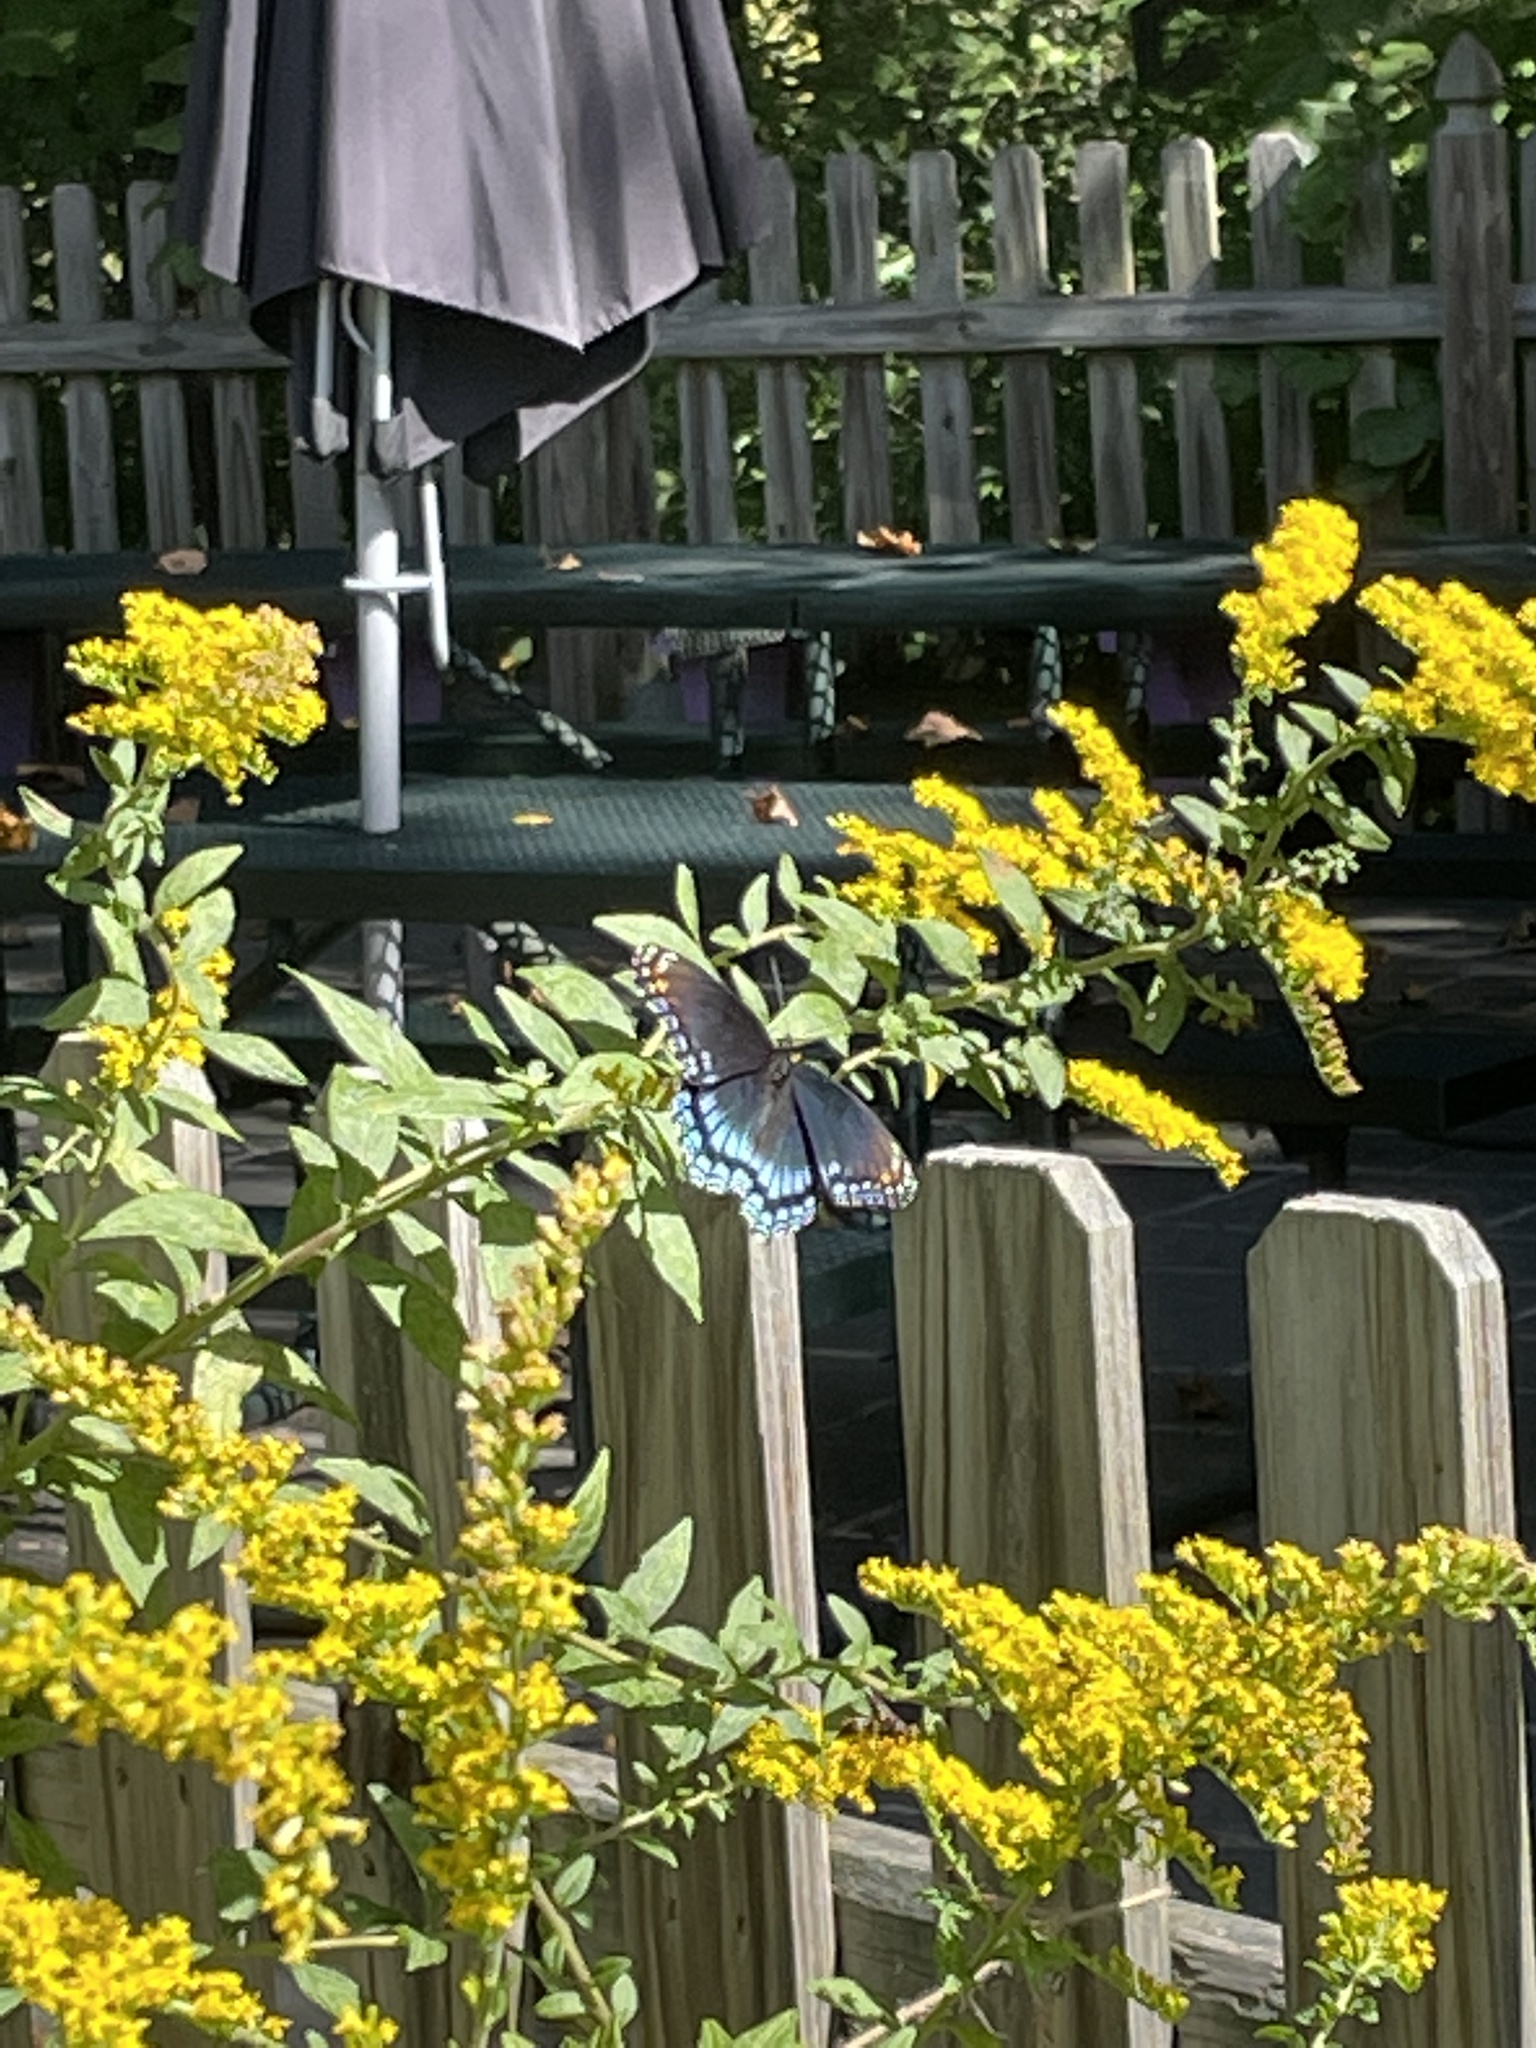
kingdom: Animalia
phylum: Arthropoda
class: Insecta
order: Lepidoptera
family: Nymphalidae
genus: Limenitis
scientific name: Limenitis astyanax
